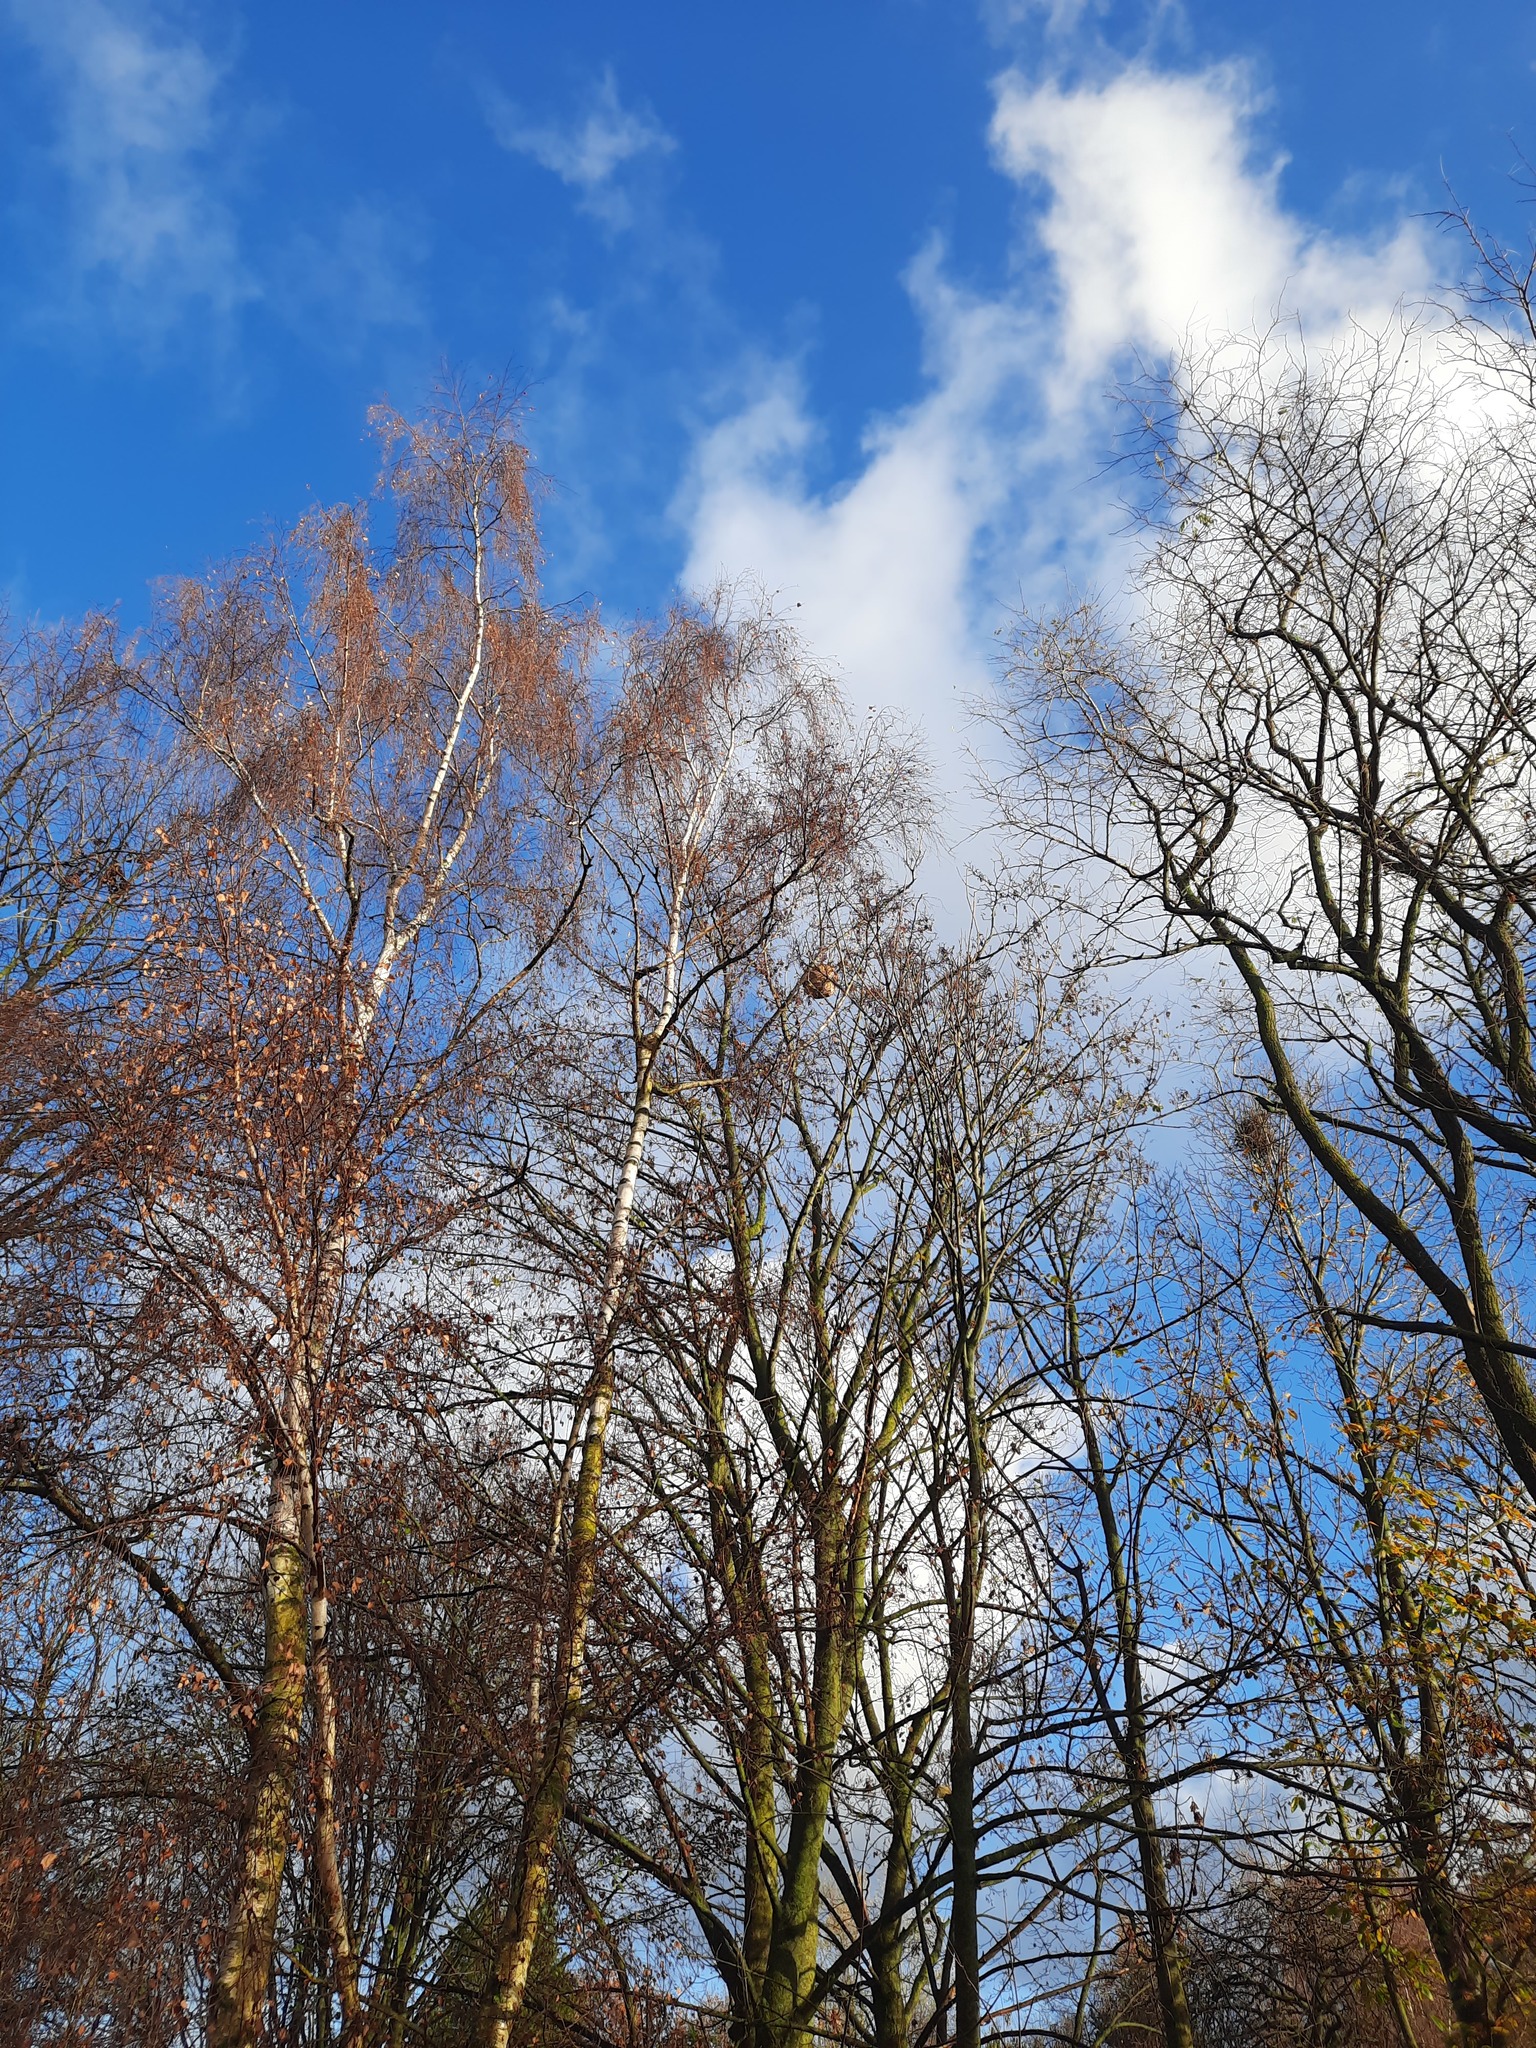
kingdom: Animalia
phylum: Arthropoda
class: Insecta
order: Hymenoptera
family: Vespidae
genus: Vespa
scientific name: Vespa velutina
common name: Asian hornet
